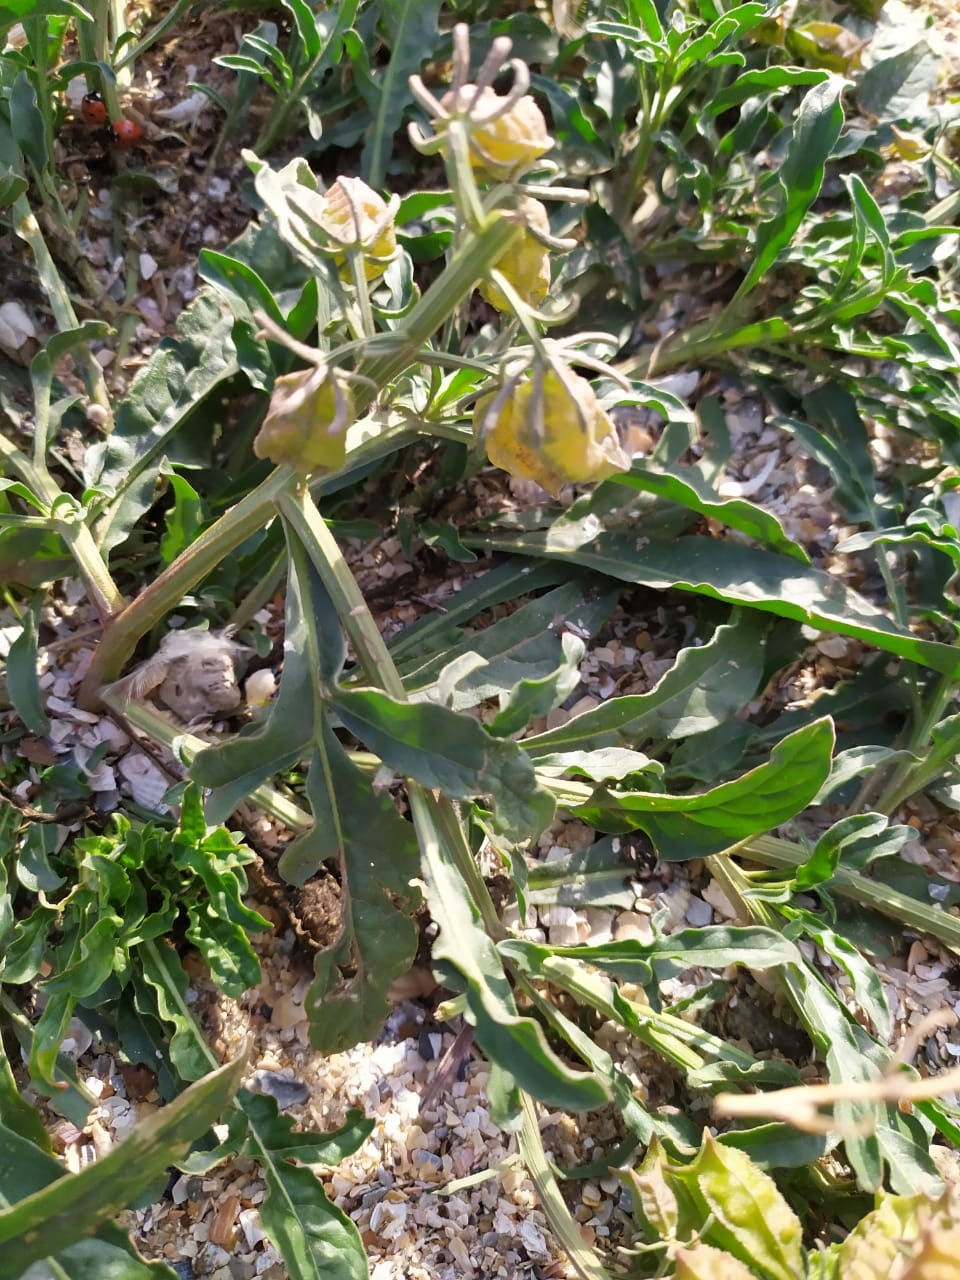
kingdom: Plantae
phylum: Tracheophyta
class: Magnoliopsida
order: Brassicales
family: Resedaceae
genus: Reseda
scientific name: Reseda lutea
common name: Wild mignonette
